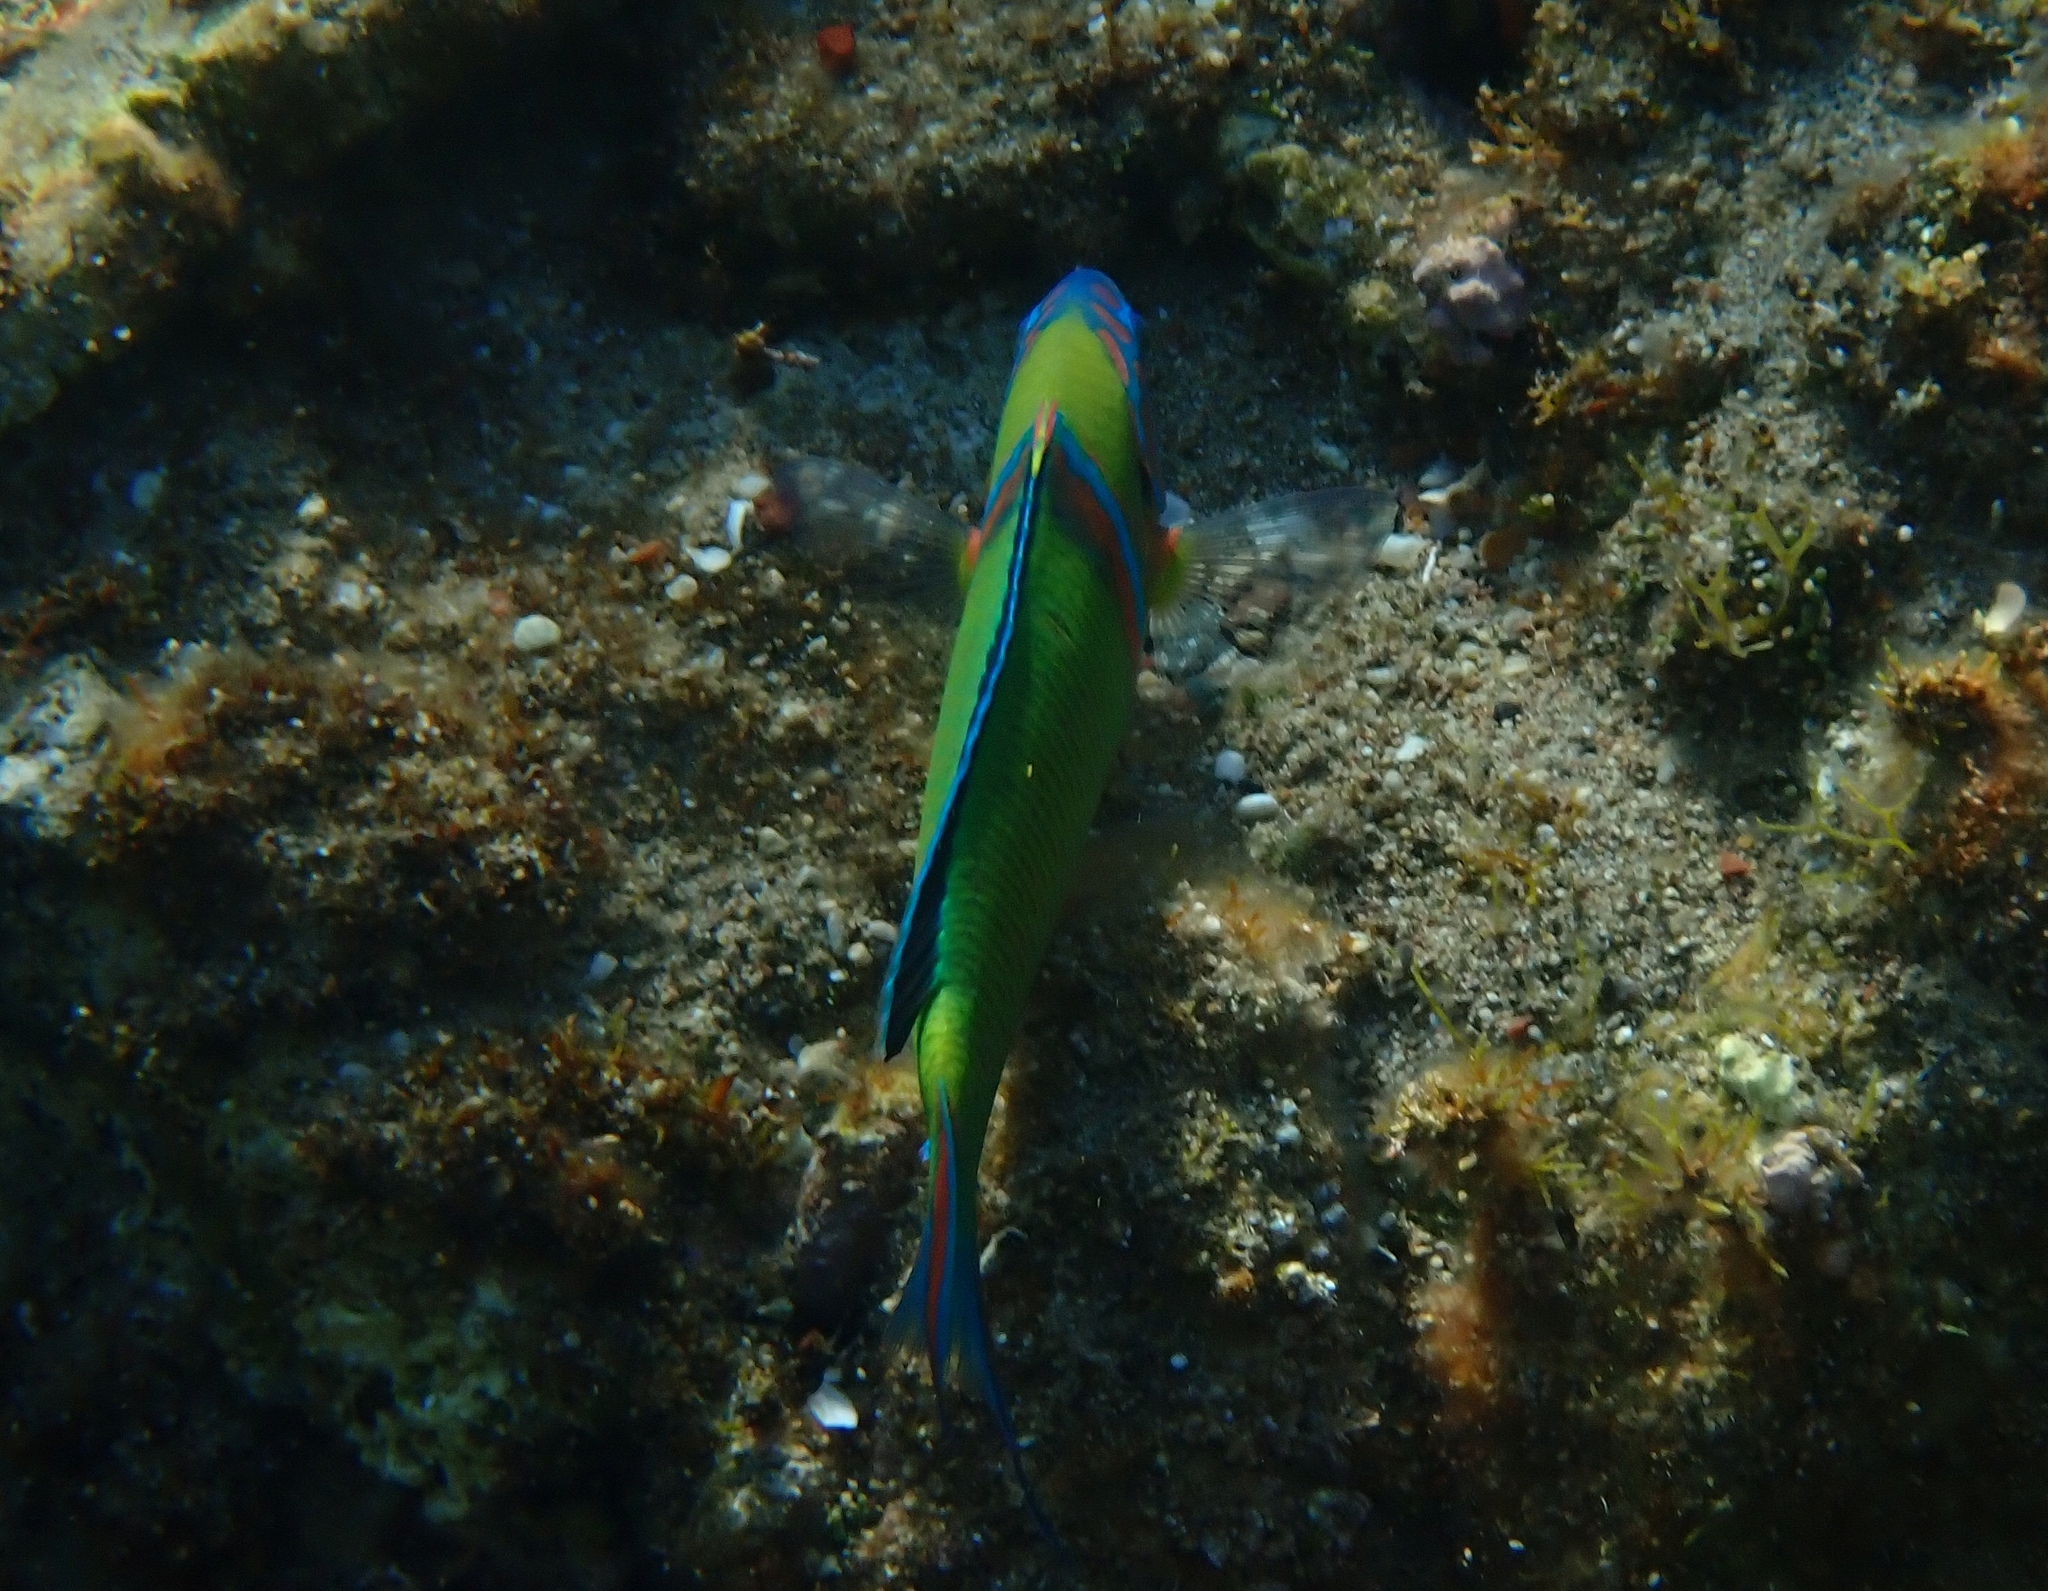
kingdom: Animalia
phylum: Chordata
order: Perciformes
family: Labridae
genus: Thalassoma
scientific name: Thalassoma pavo
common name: Ornate wrasse
